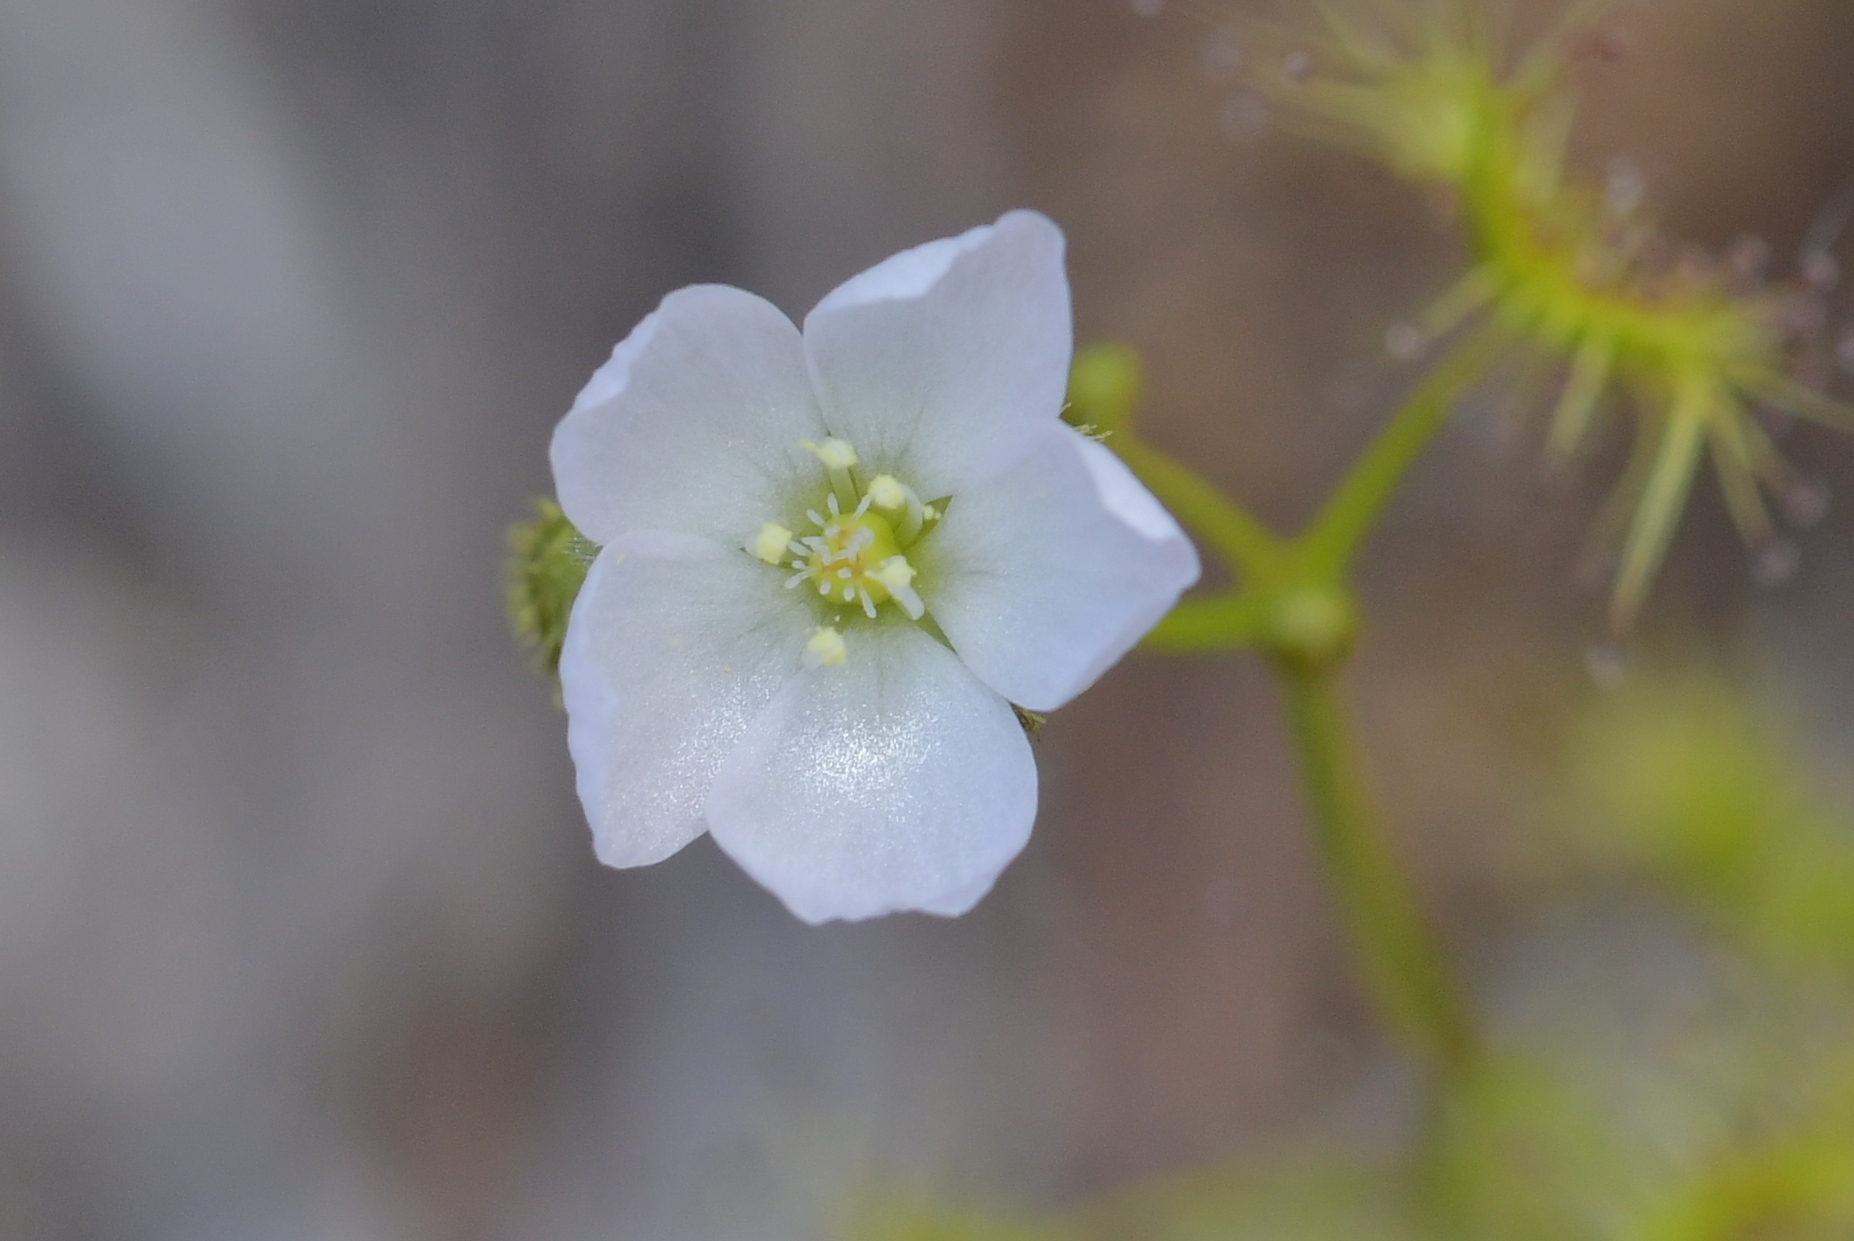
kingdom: Plantae
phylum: Tracheophyta
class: Magnoliopsida
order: Caryophyllales
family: Droseraceae
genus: Drosera
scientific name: Drosera gunniana
